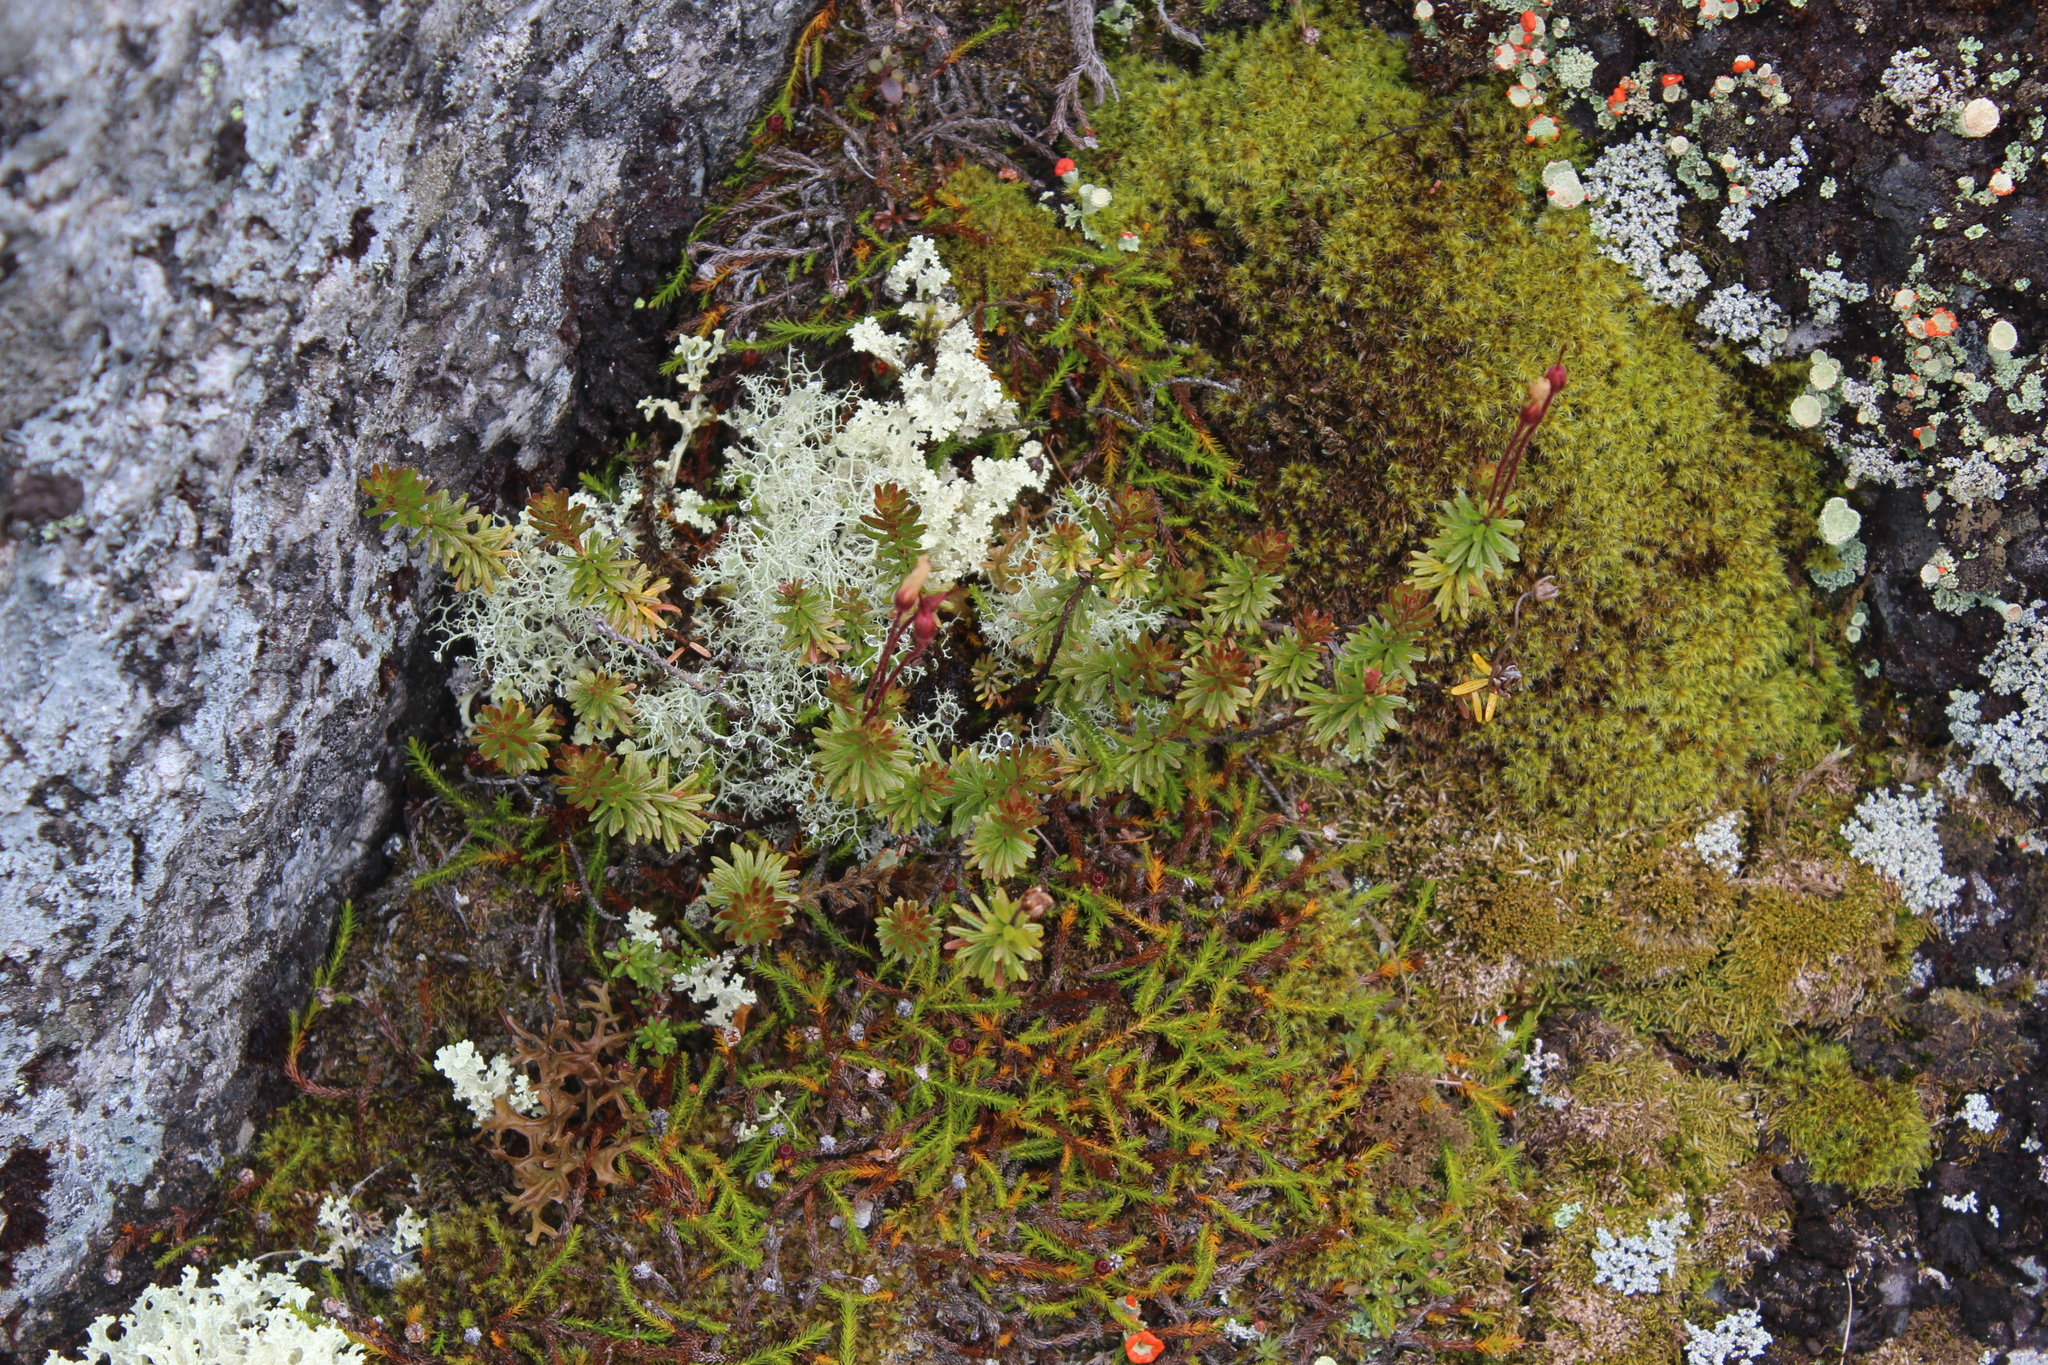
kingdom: Plantae
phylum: Tracheophyta
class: Magnoliopsida
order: Ericales
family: Ericaceae
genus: Phyllodoce
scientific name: Phyllodoce caerulea
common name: Blue heath
